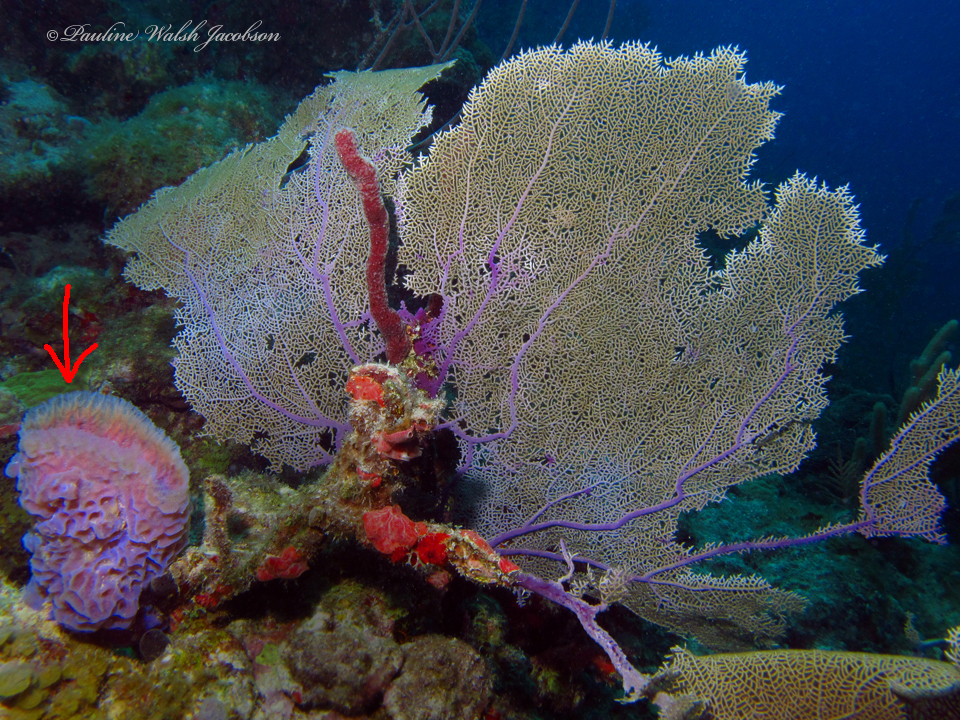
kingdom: Animalia
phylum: Porifera
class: Demospongiae
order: Haplosclerida
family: Callyspongiidae
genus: Callyspongia
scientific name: Callyspongia plicifera
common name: Azure vase sponge
